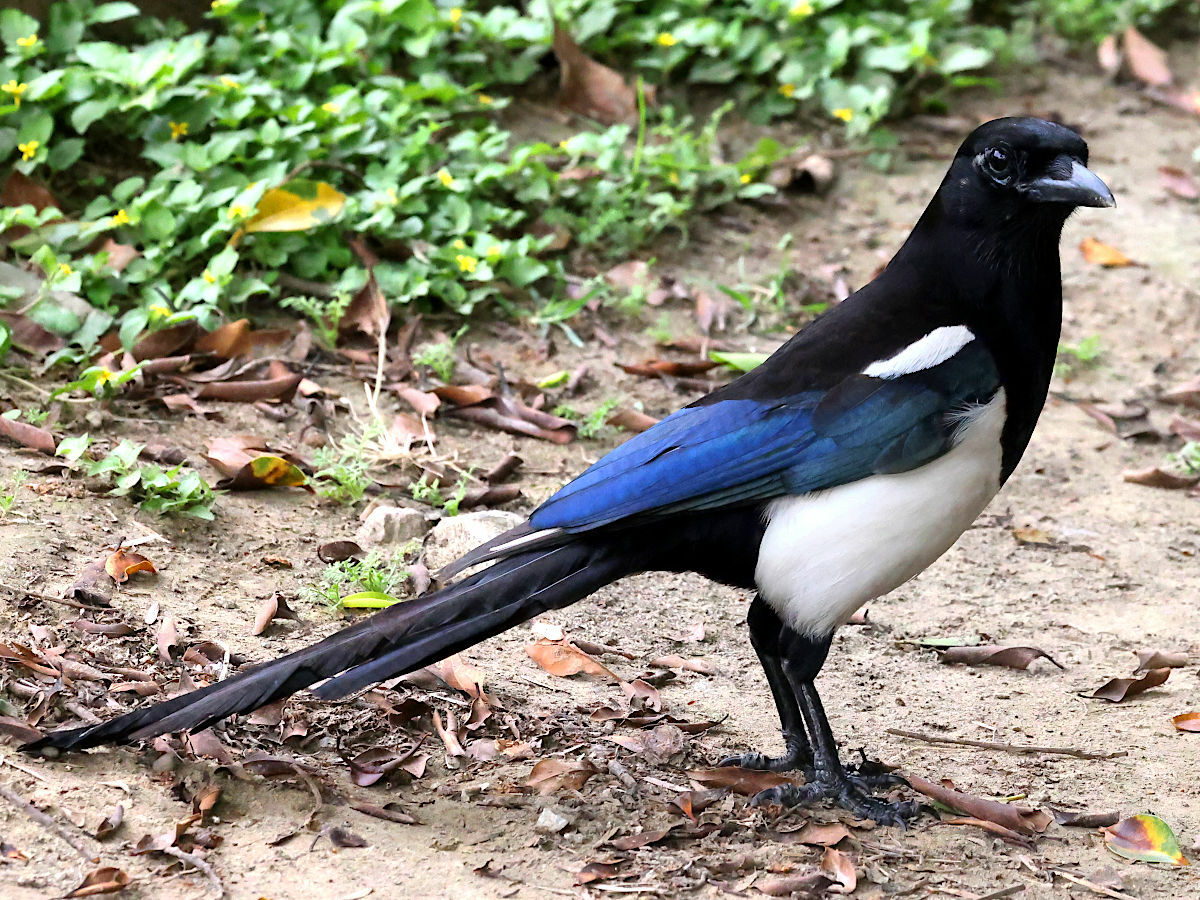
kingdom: Animalia
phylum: Chordata
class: Aves
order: Passeriformes
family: Corvidae
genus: Pica
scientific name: Pica serica
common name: Oriental magpie
